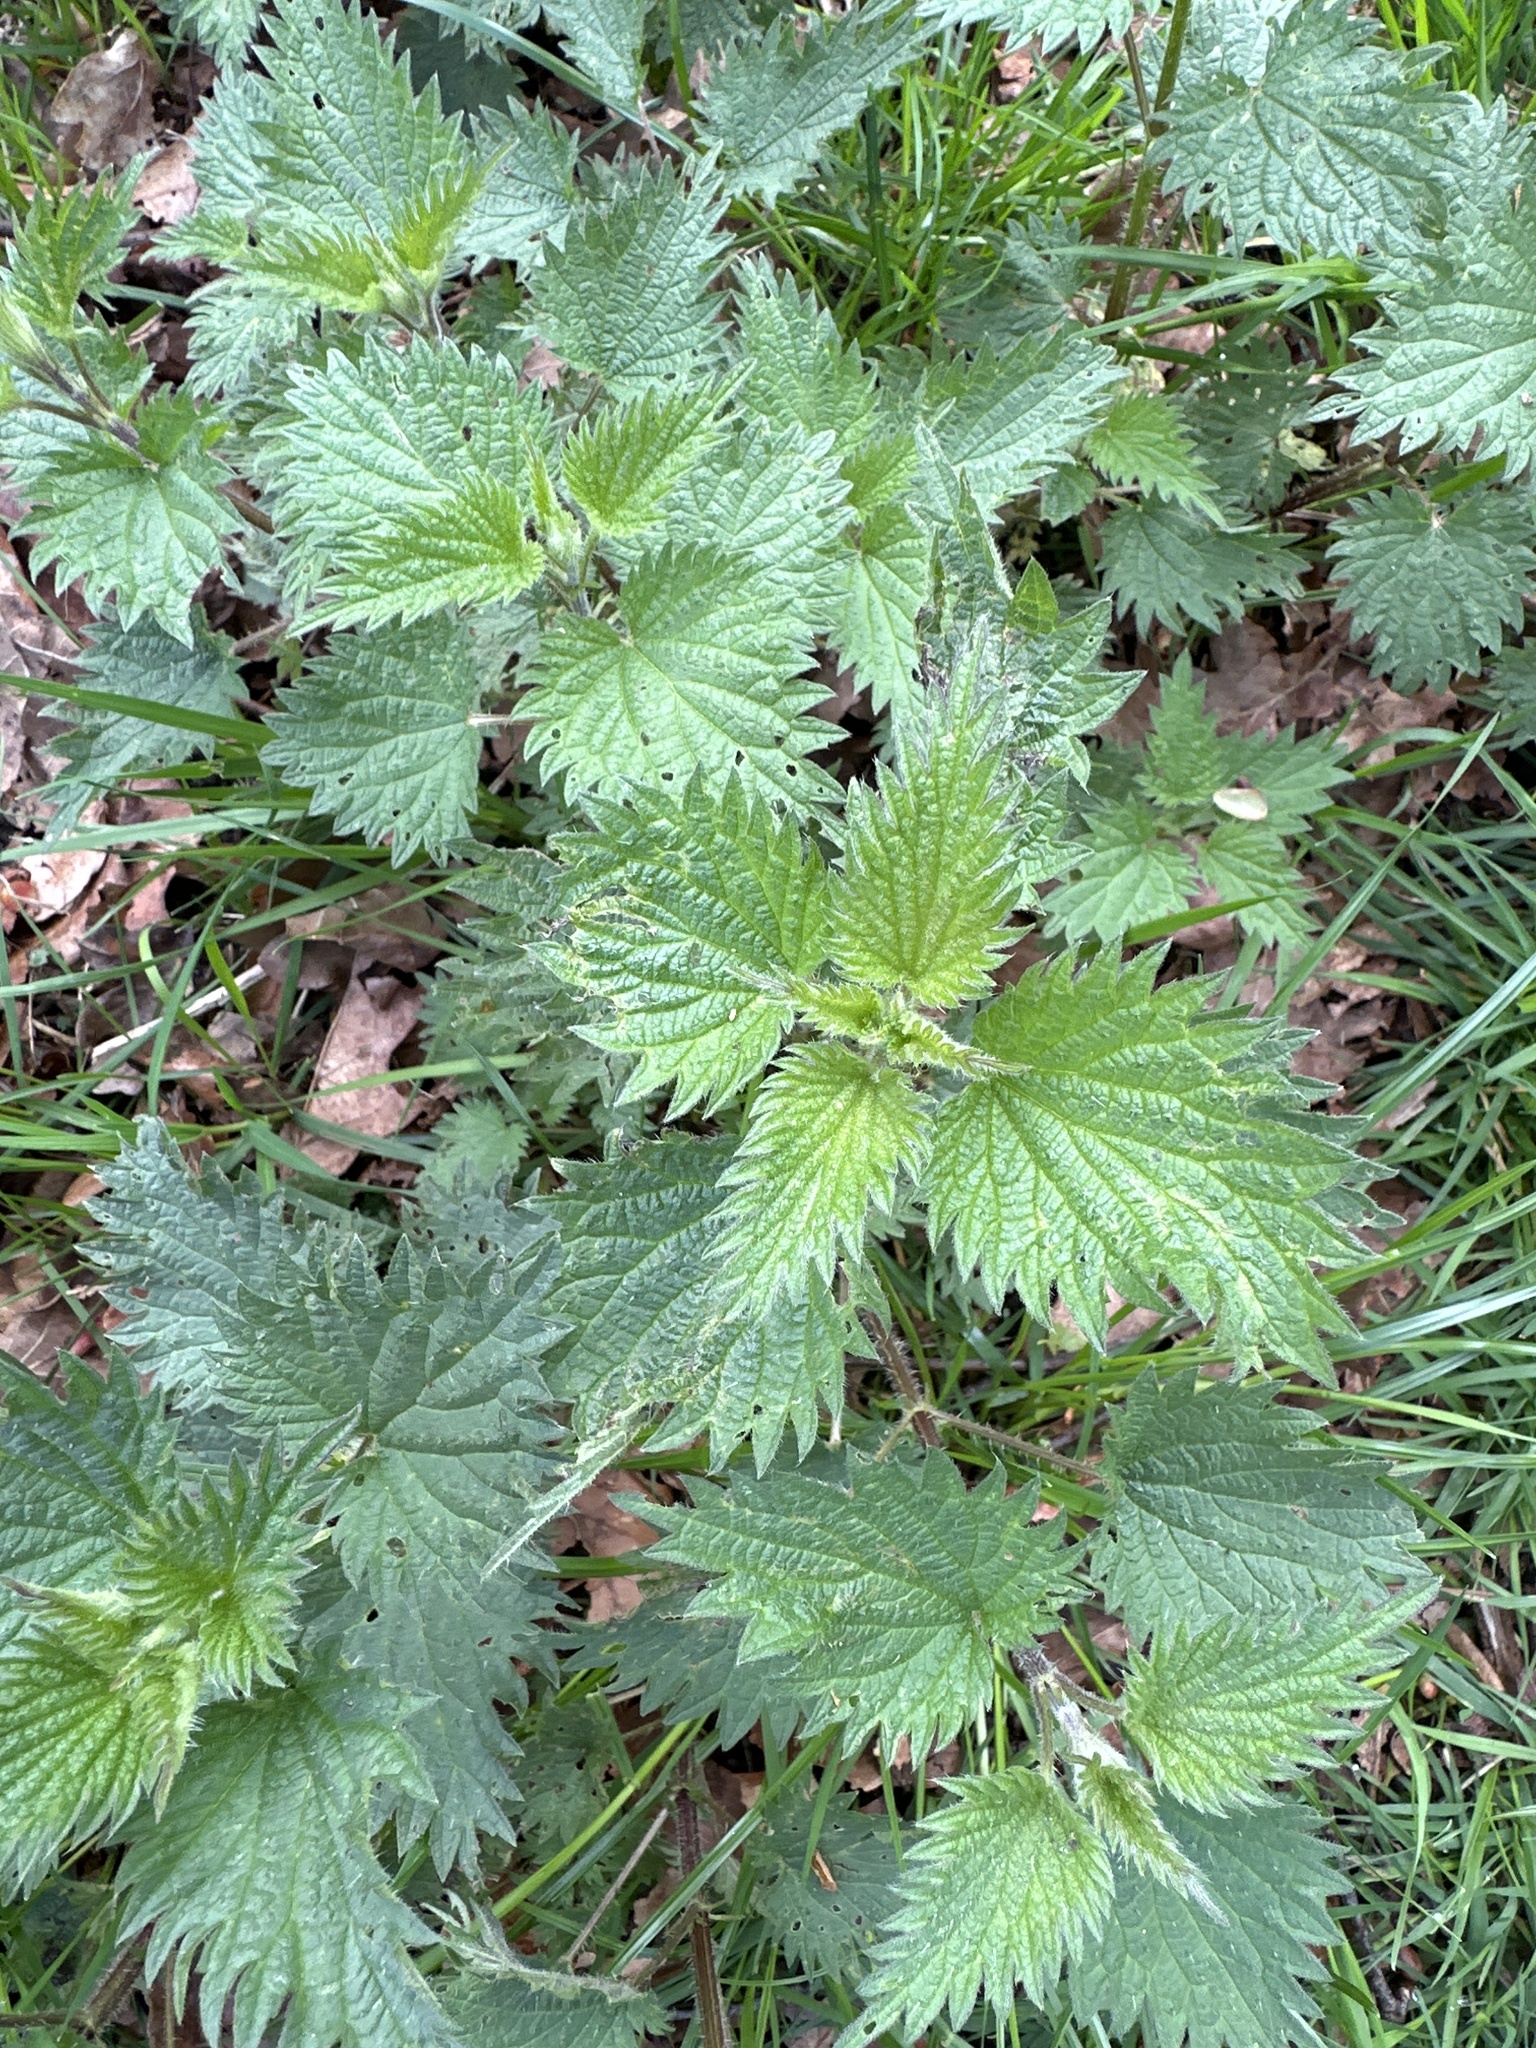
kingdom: Plantae
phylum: Tracheophyta
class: Magnoliopsida
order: Rosales
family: Urticaceae
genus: Urtica
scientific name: Urtica dioica
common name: Common nettle
